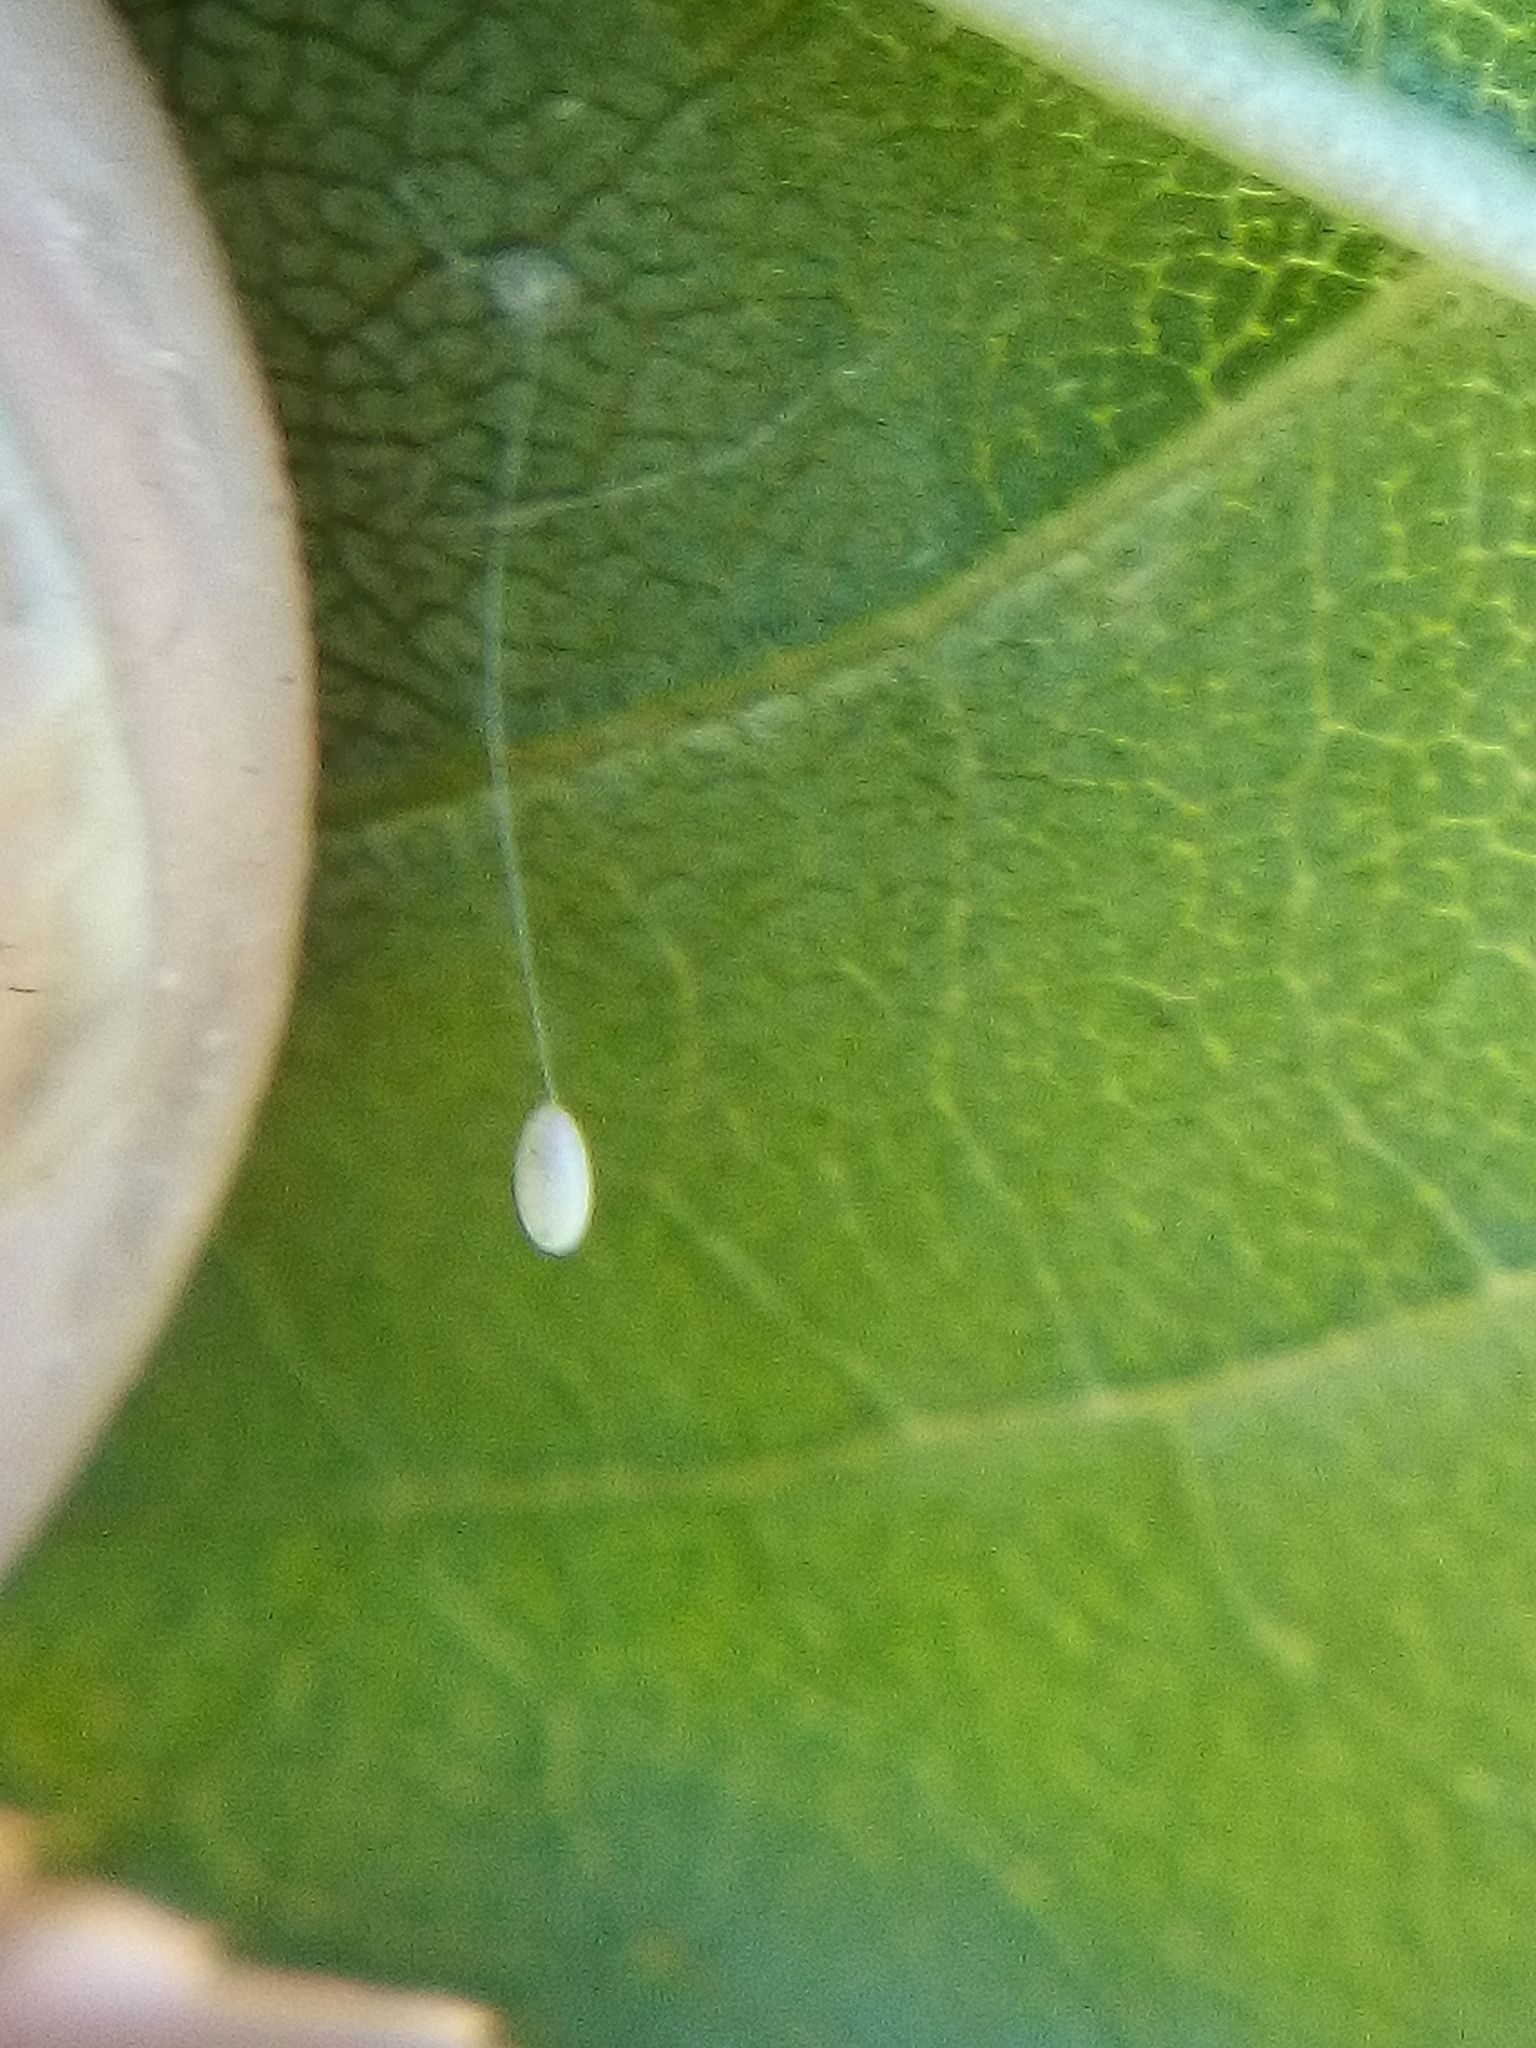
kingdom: Animalia
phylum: Arthropoda
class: Insecta
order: Neuroptera
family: Chrysopidae
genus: Mallada
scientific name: Mallada basalis
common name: Green lacewing
